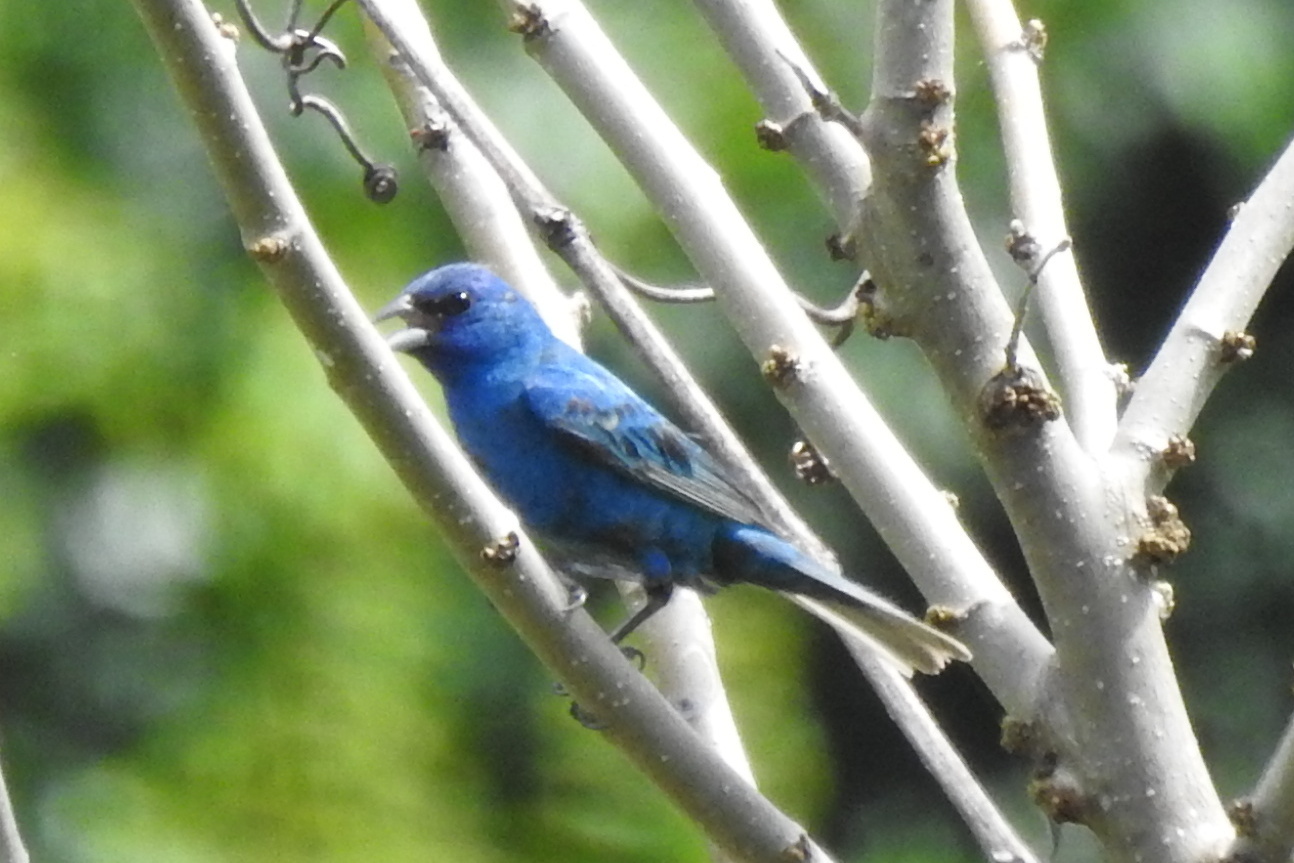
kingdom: Animalia
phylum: Chordata
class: Aves
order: Passeriformes
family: Cardinalidae
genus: Passerina
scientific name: Passerina cyanea
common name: Indigo bunting
